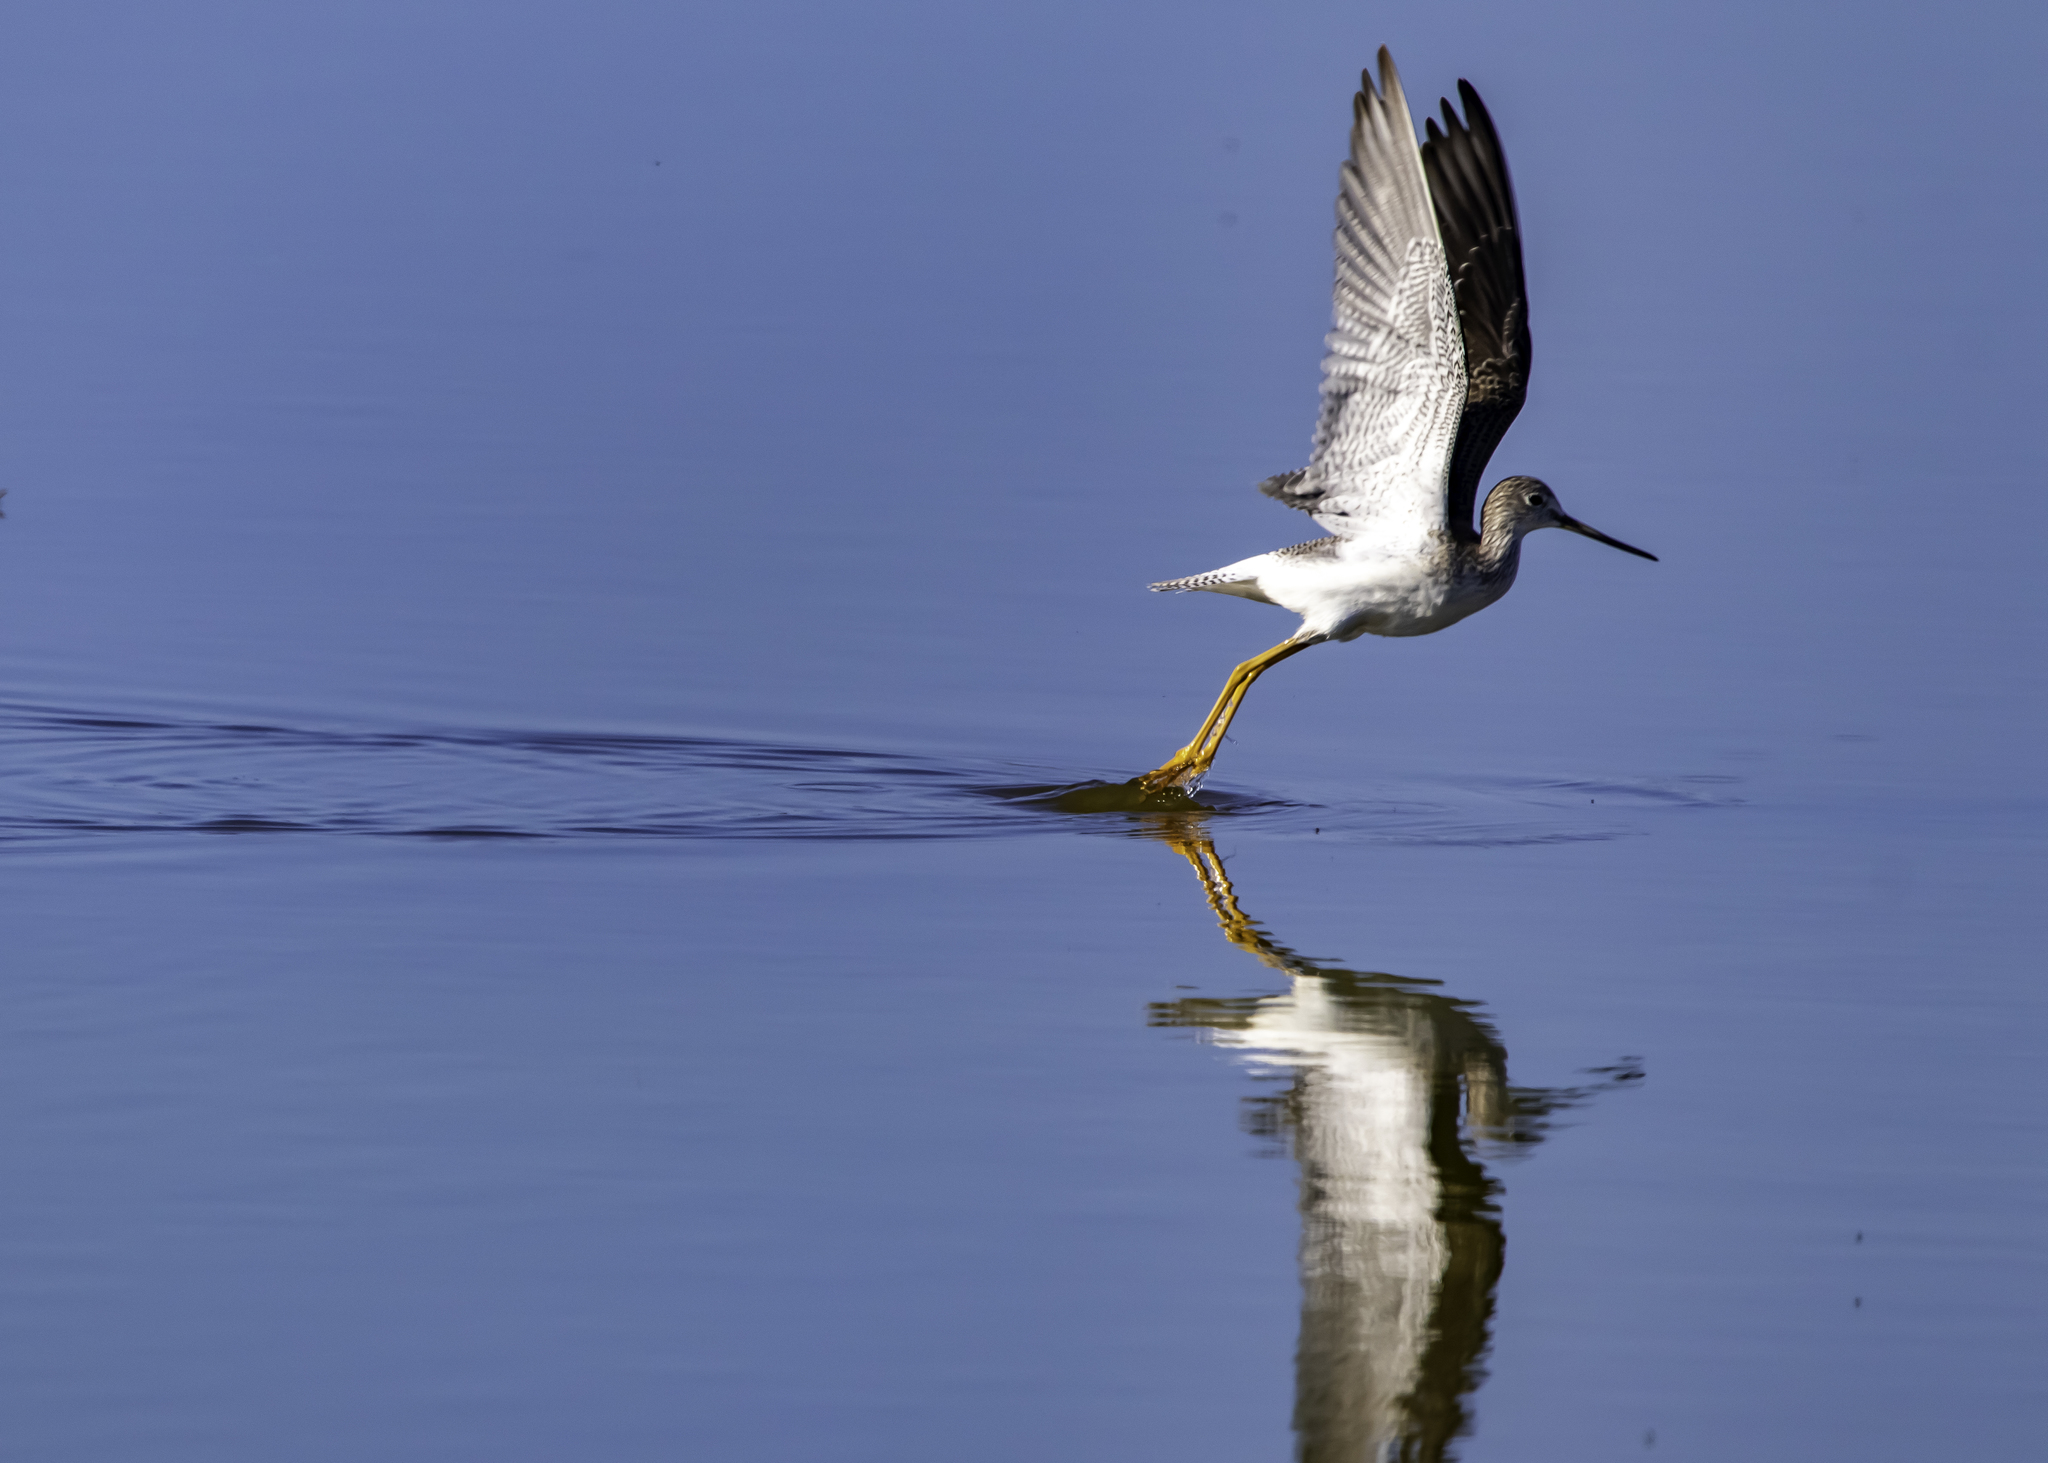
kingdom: Animalia
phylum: Chordata
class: Aves
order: Charadriiformes
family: Scolopacidae
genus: Tringa
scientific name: Tringa melanoleuca
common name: Greater yellowlegs
